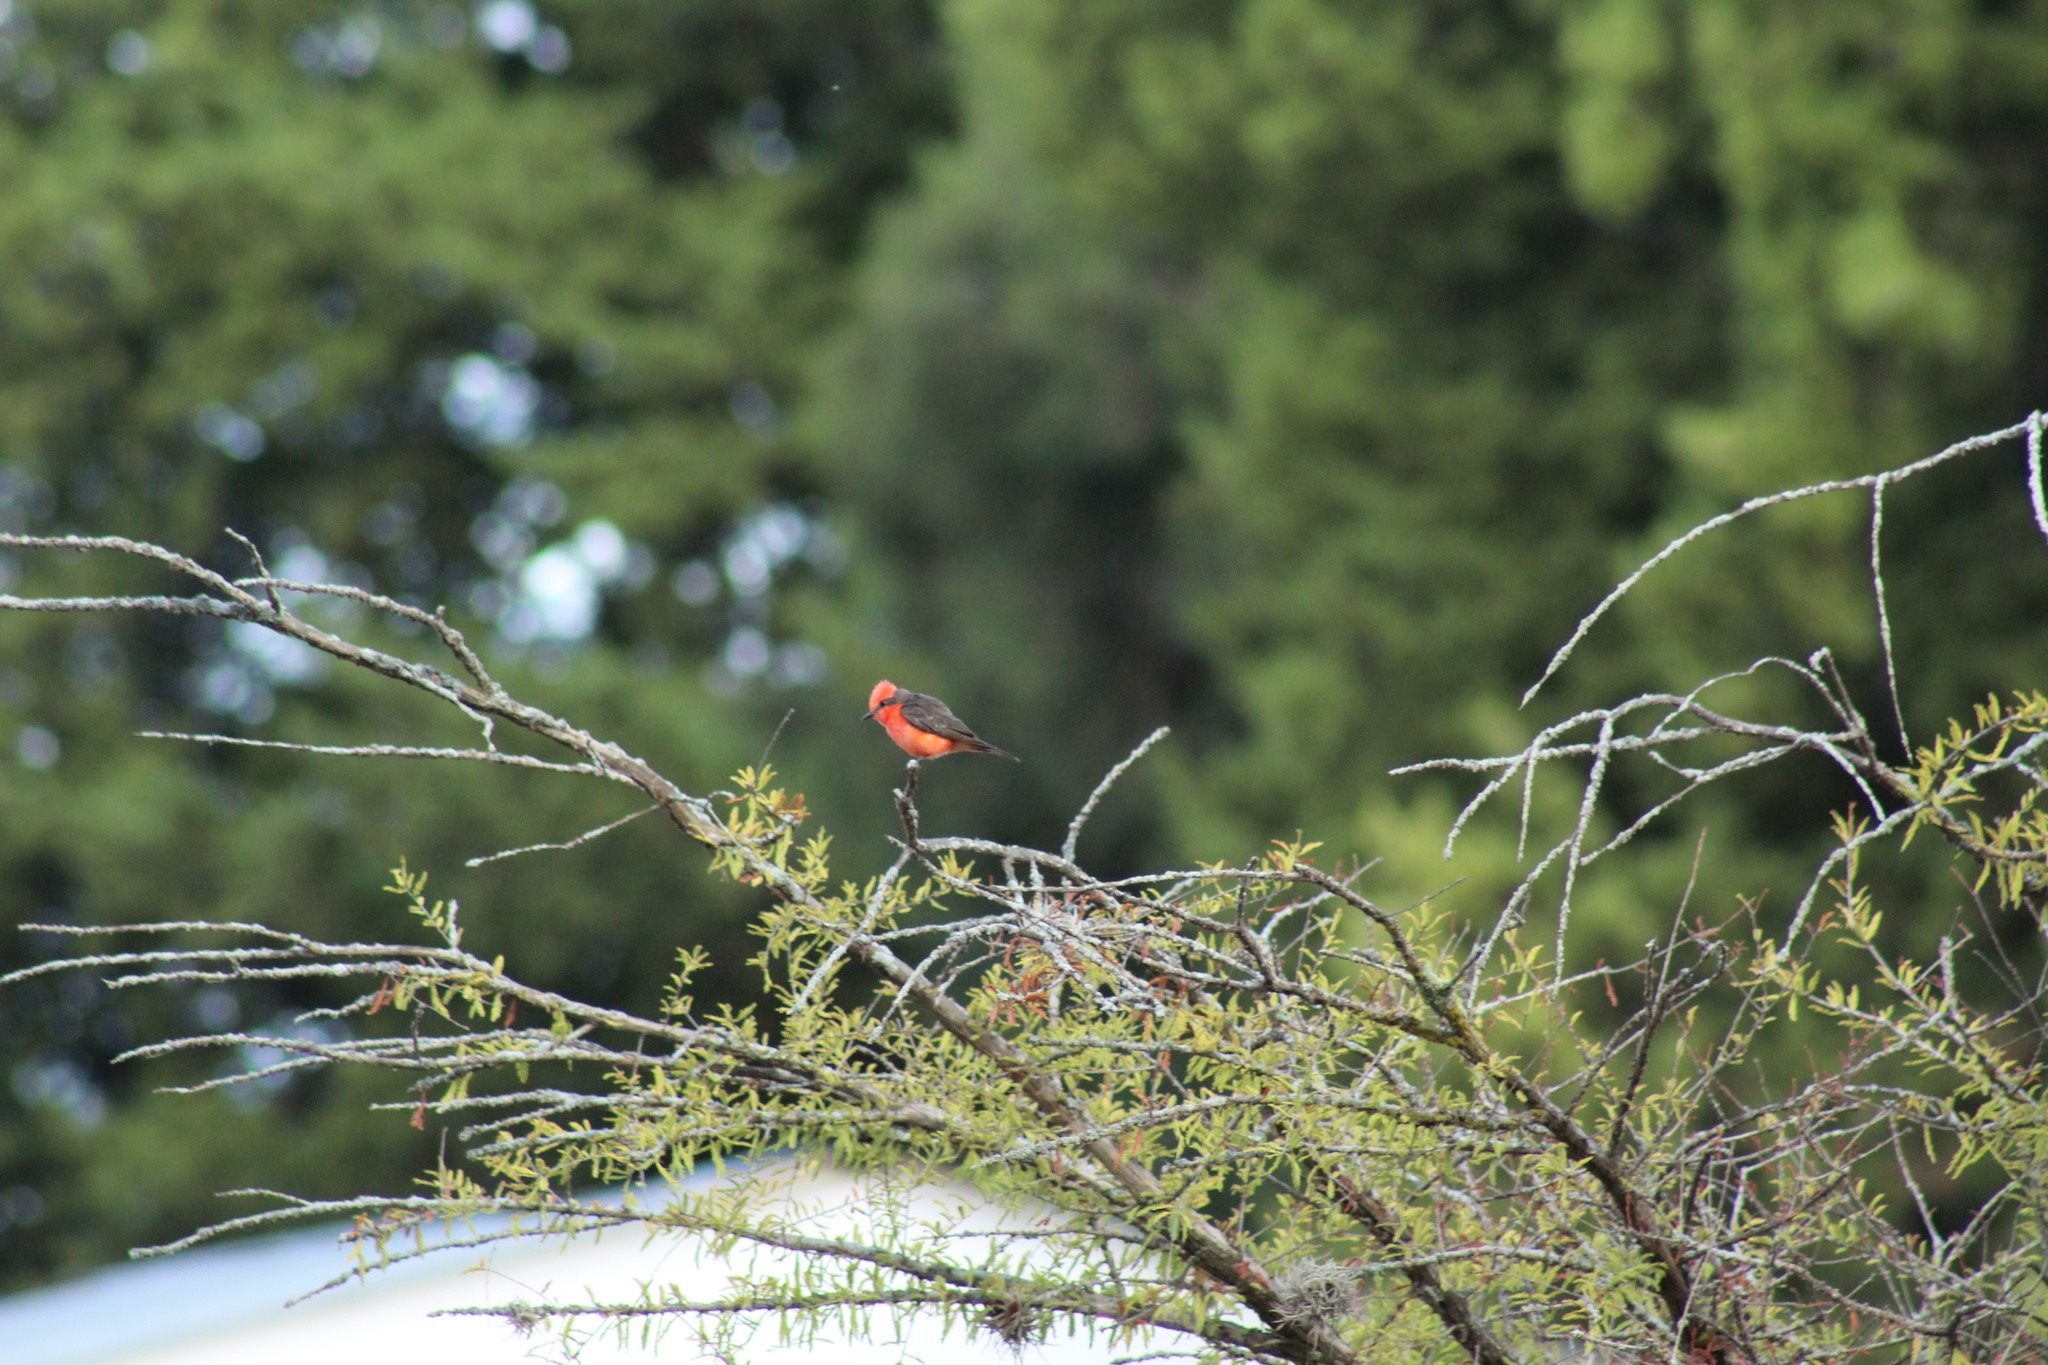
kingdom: Animalia
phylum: Chordata
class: Aves
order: Passeriformes
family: Tyrannidae
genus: Pyrocephalus
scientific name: Pyrocephalus rubinus
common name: Vermilion flycatcher
